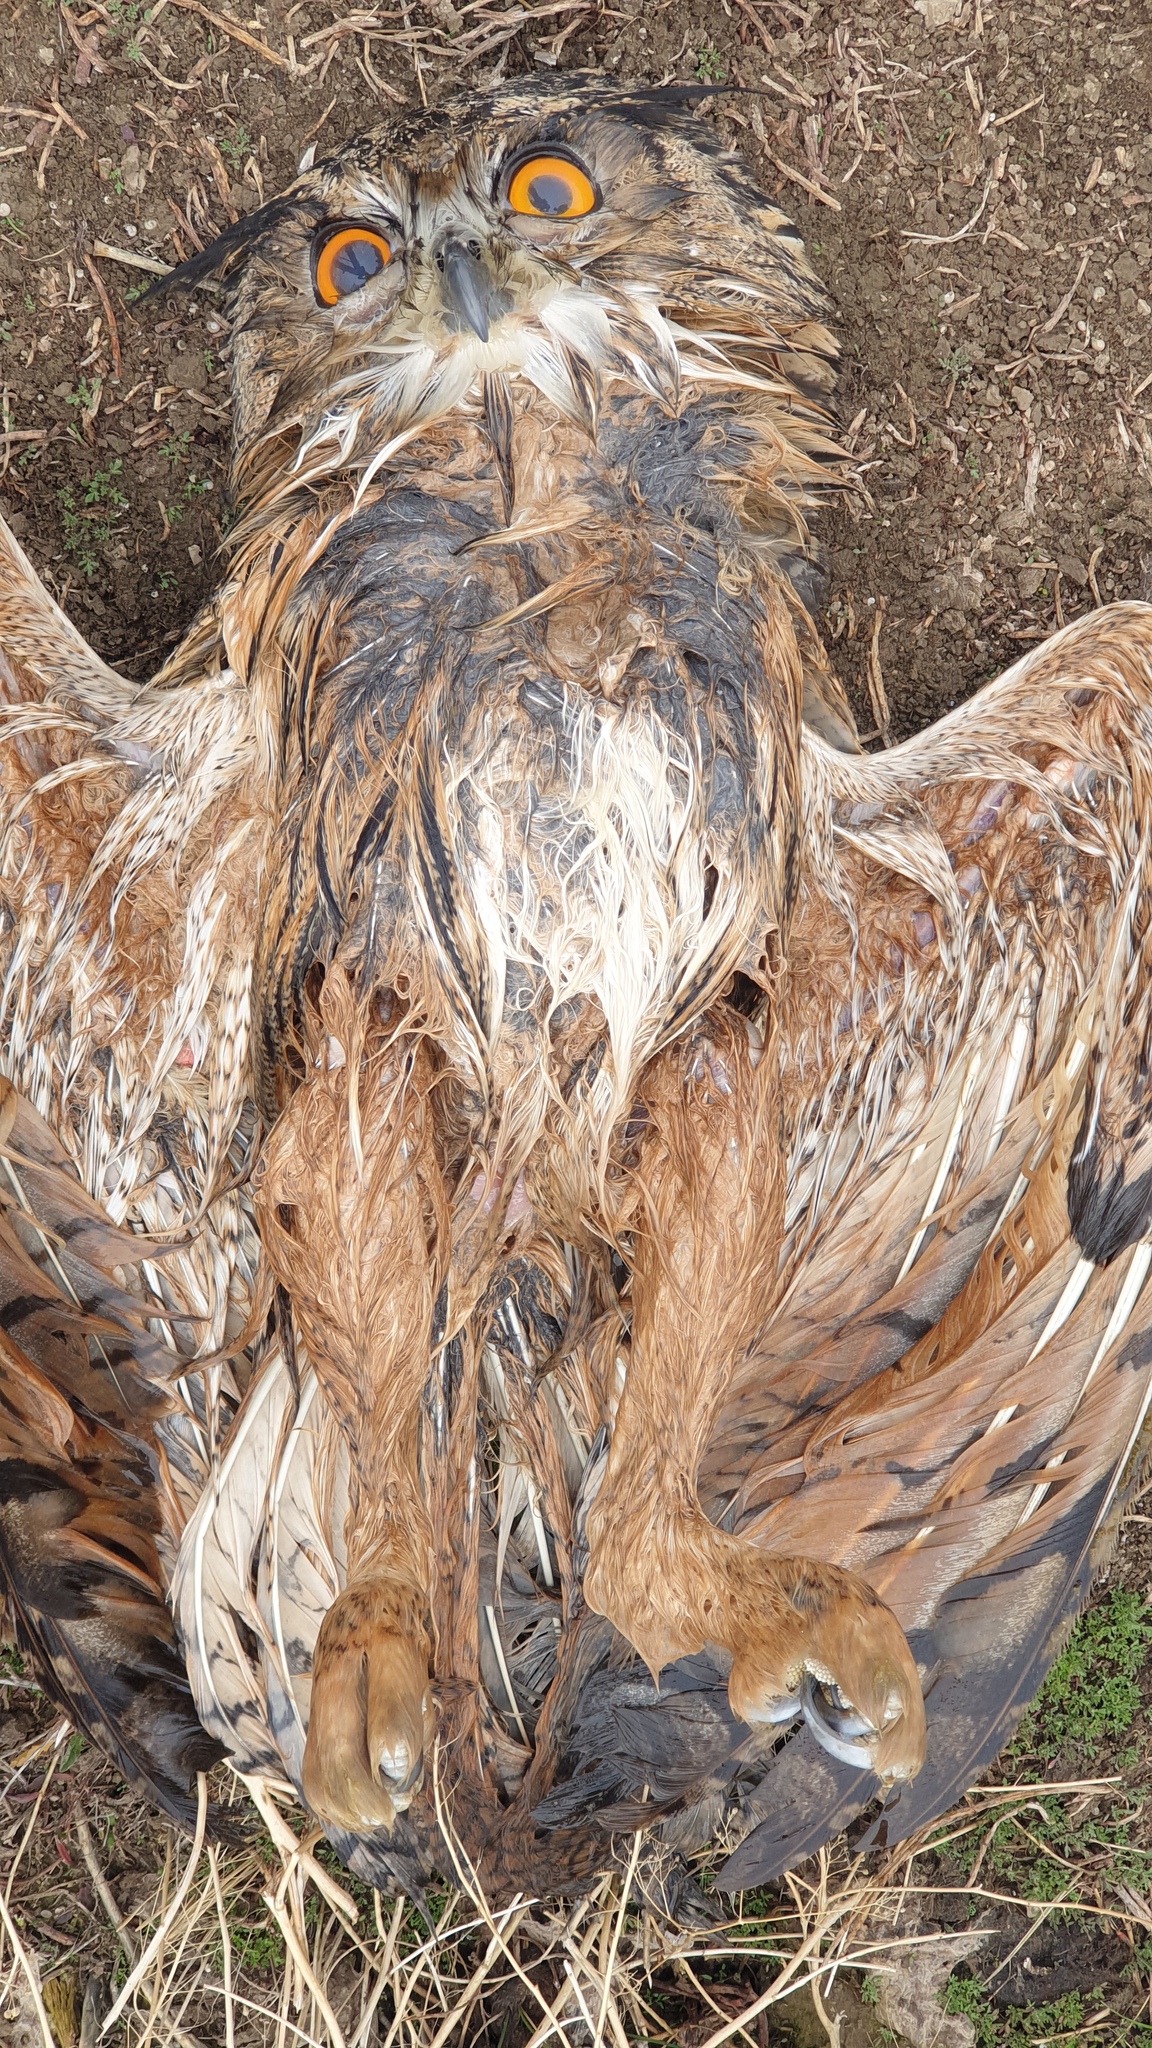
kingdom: Animalia
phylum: Chordata
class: Aves
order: Strigiformes
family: Strigidae
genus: Bubo
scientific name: Bubo bubo
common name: Eurasian eagle-owl
